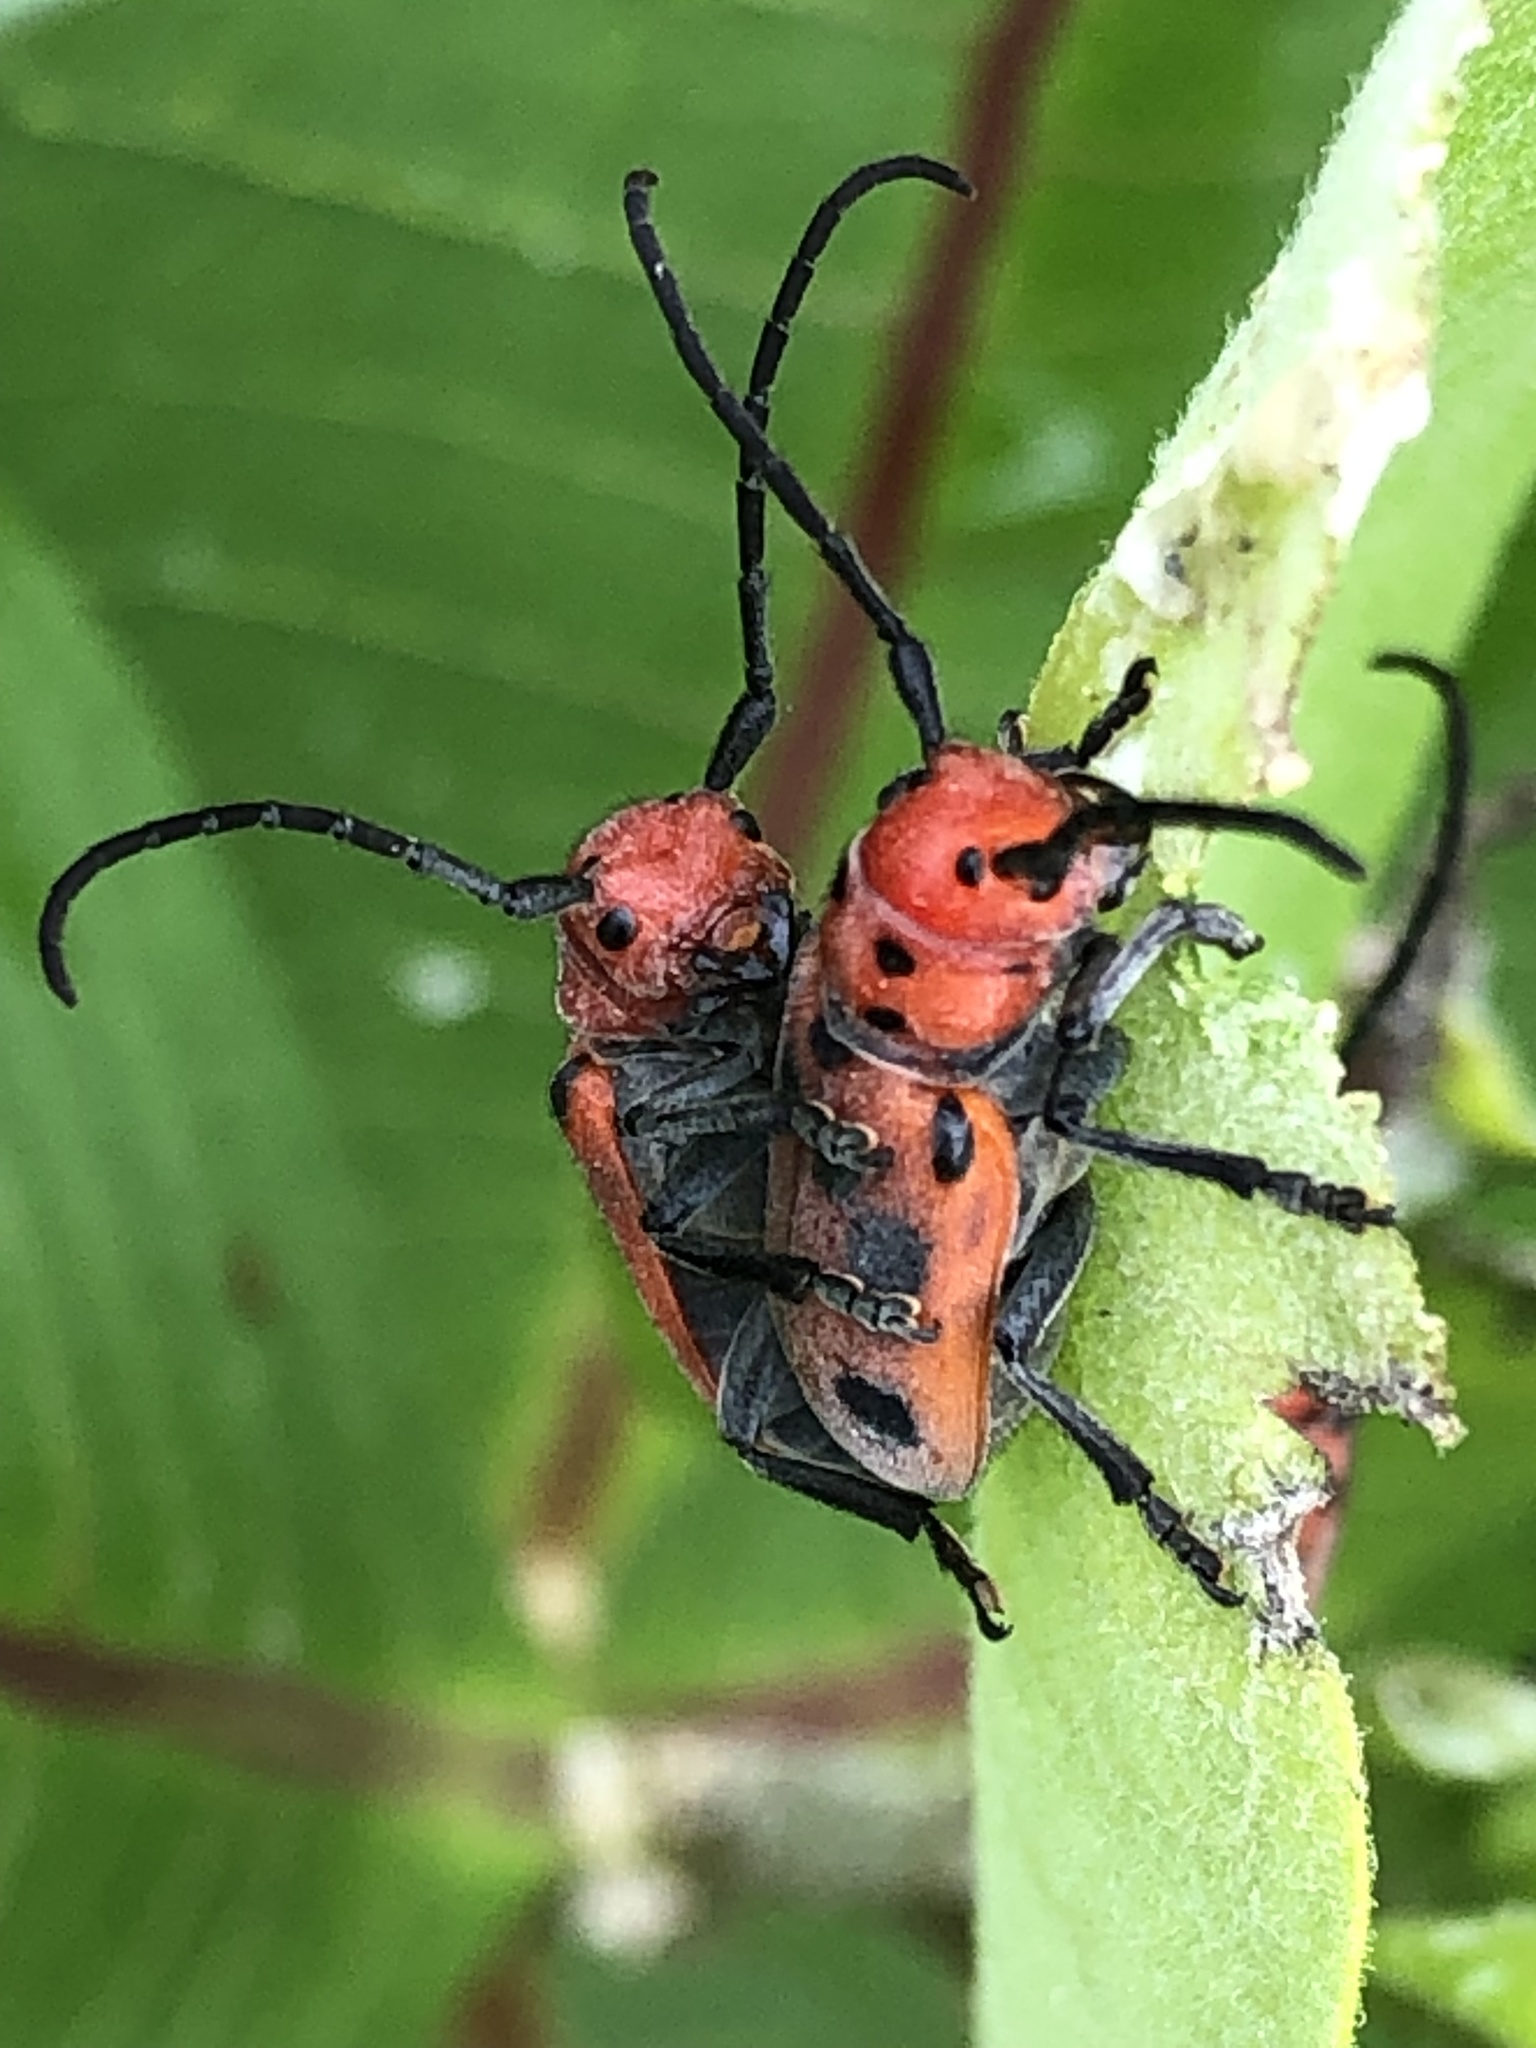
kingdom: Animalia
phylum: Arthropoda
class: Insecta
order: Coleoptera
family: Cerambycidae
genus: Tetraopes
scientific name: Tetraopes tetrophthalmus
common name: Red milkweed beetle
